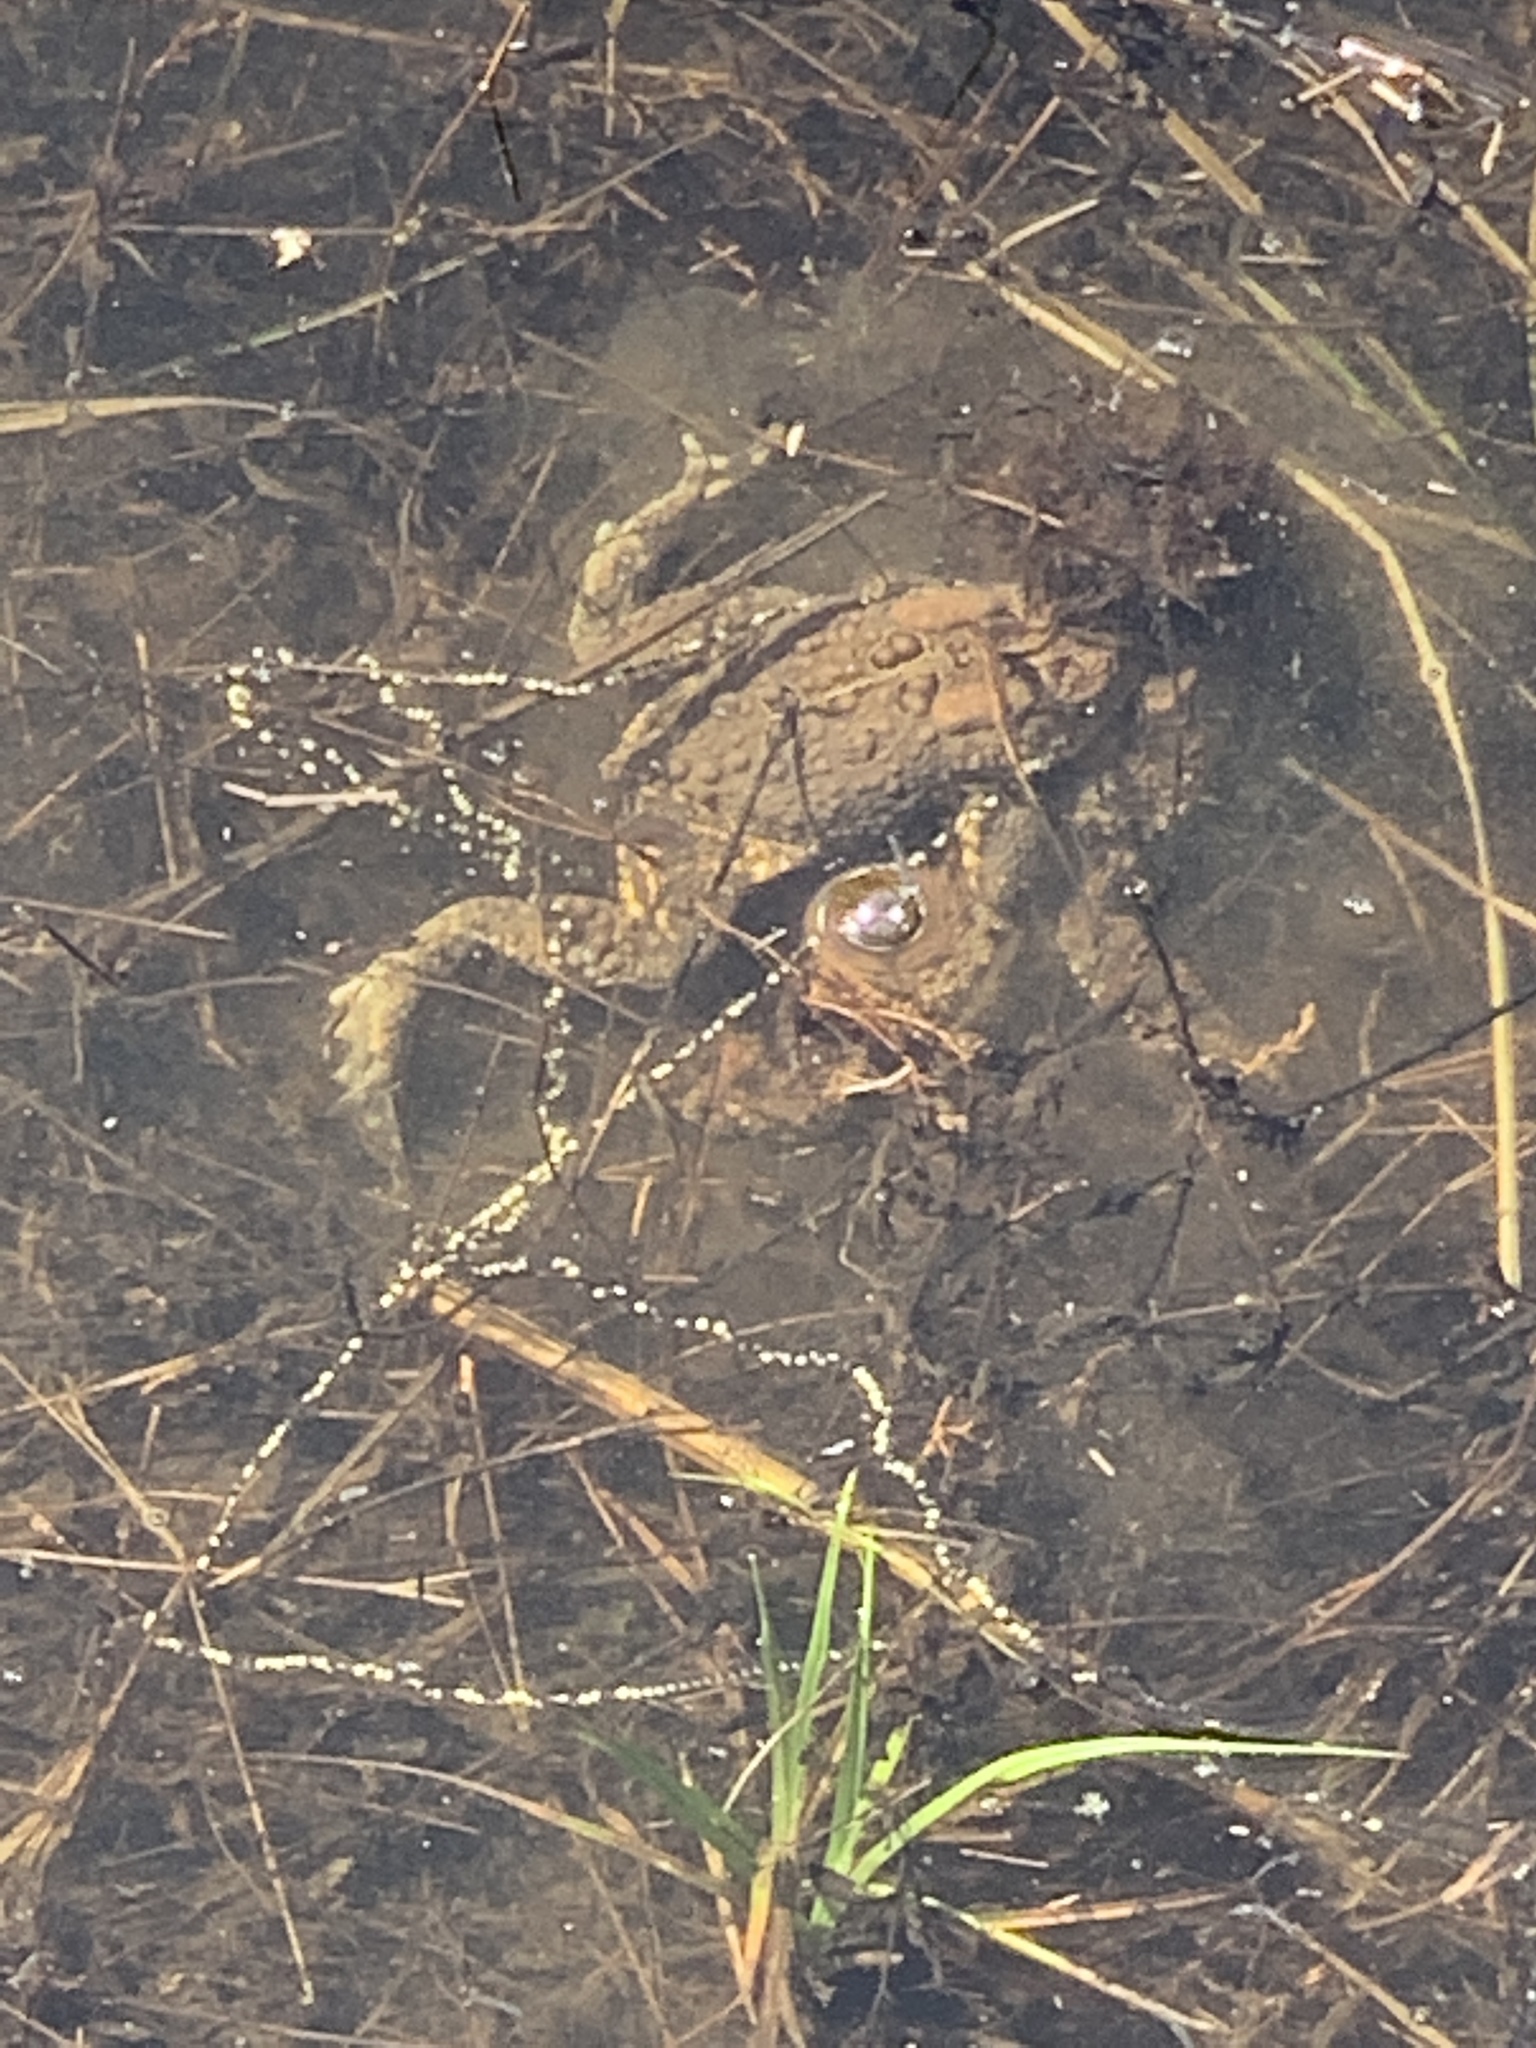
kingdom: Animalia
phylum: Chordata
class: Amphibia
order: Anura
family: Bufonidae
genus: Anaxyrus
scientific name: Anaxyrus americanus
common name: American toad
